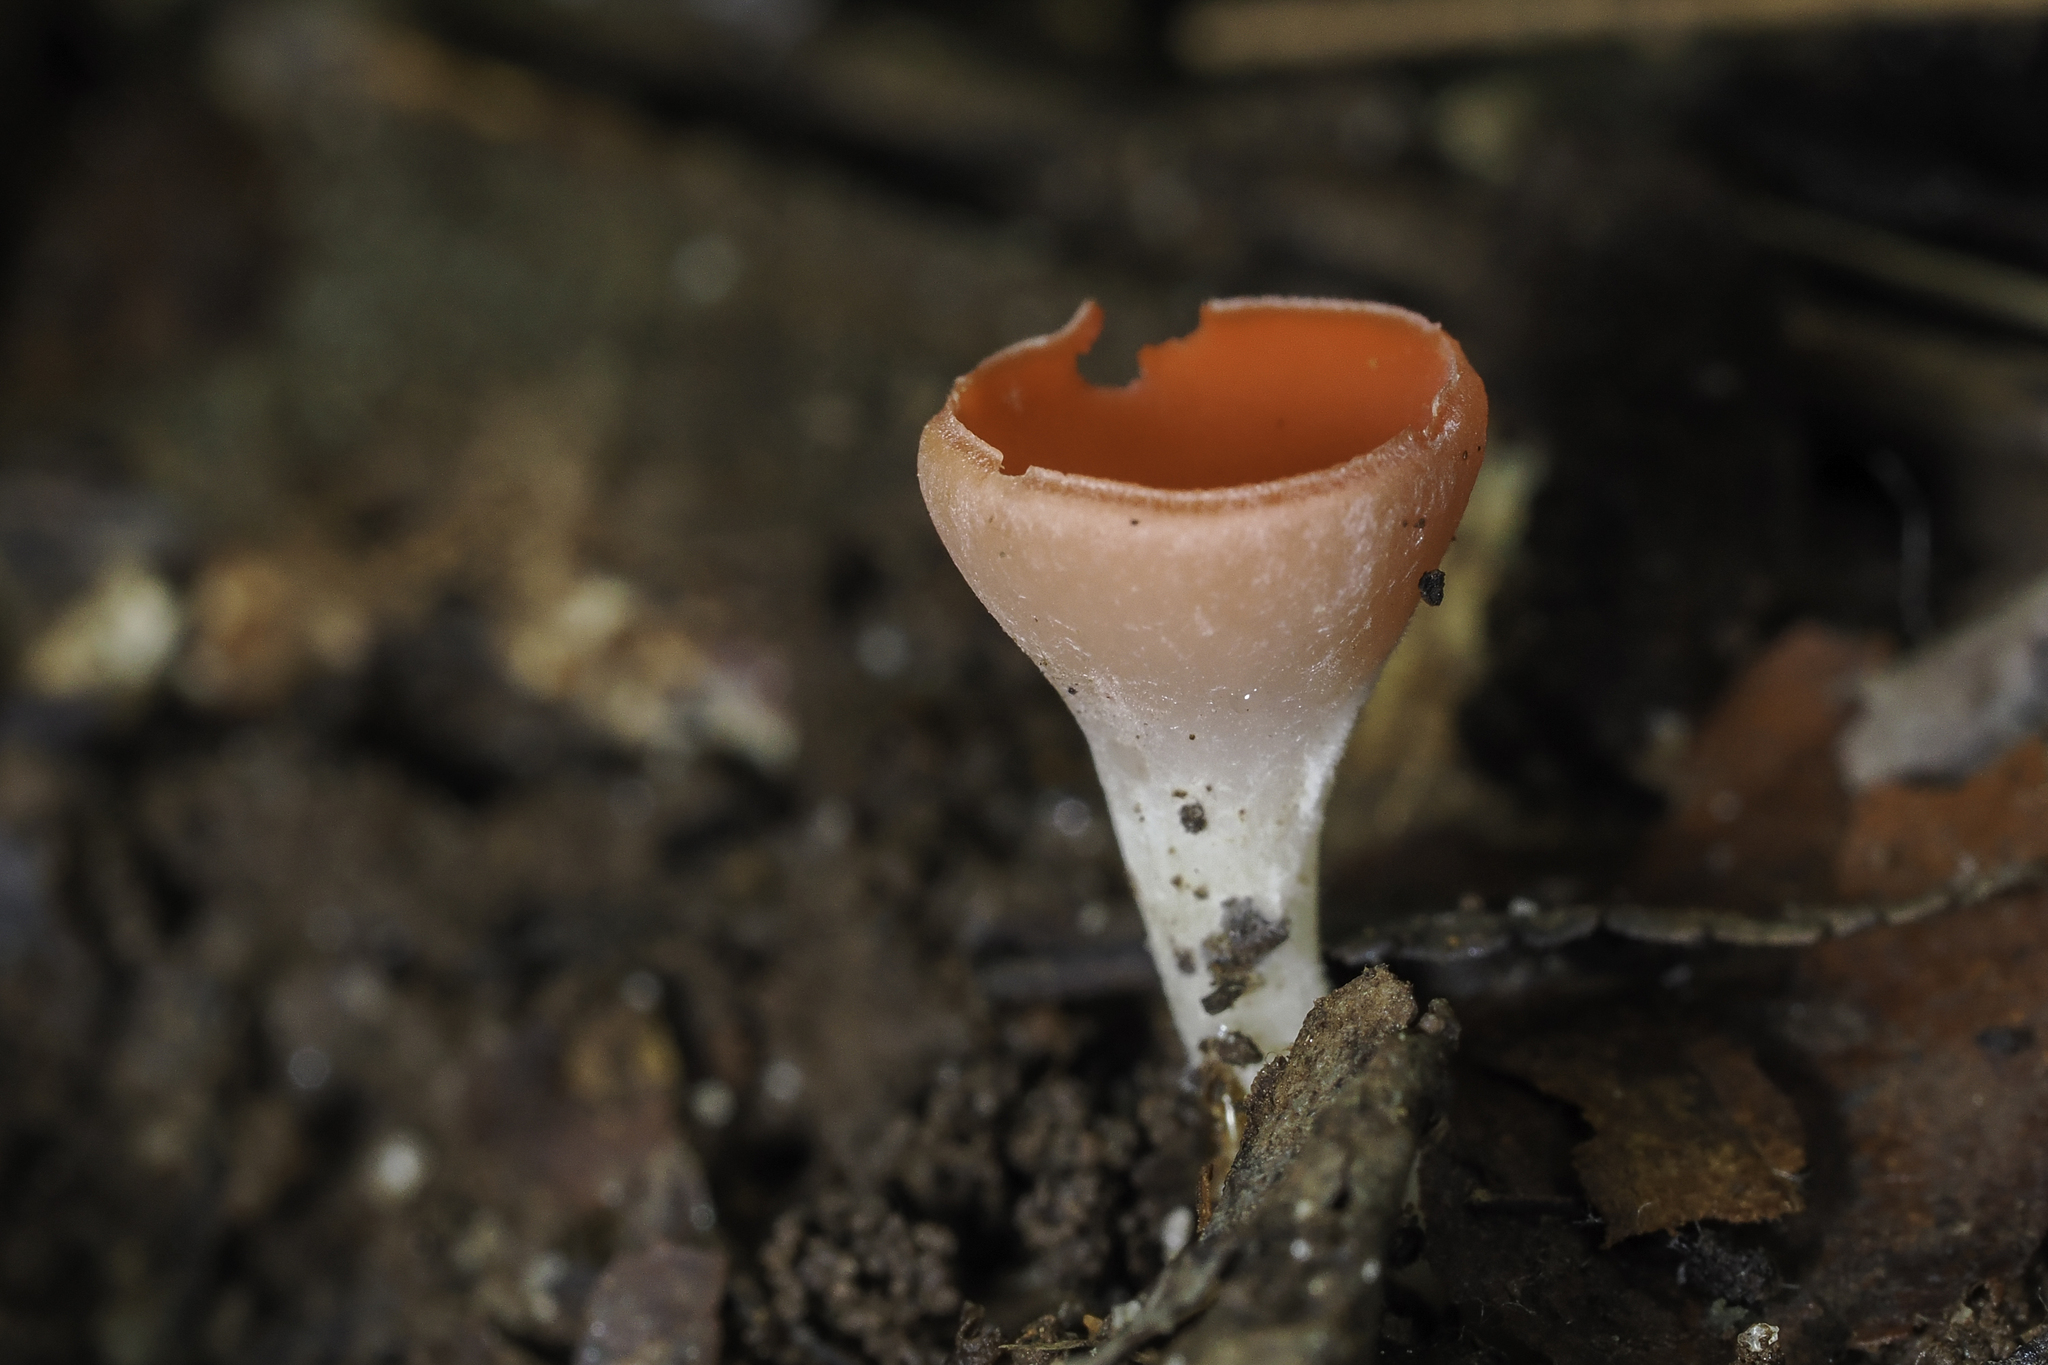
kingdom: Fungi
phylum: Ascomycota
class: Pezizomycetes
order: Pezizales
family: Sarcoscyphaceae
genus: Sarcoscypha
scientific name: Sarcoscypha occidentalis
